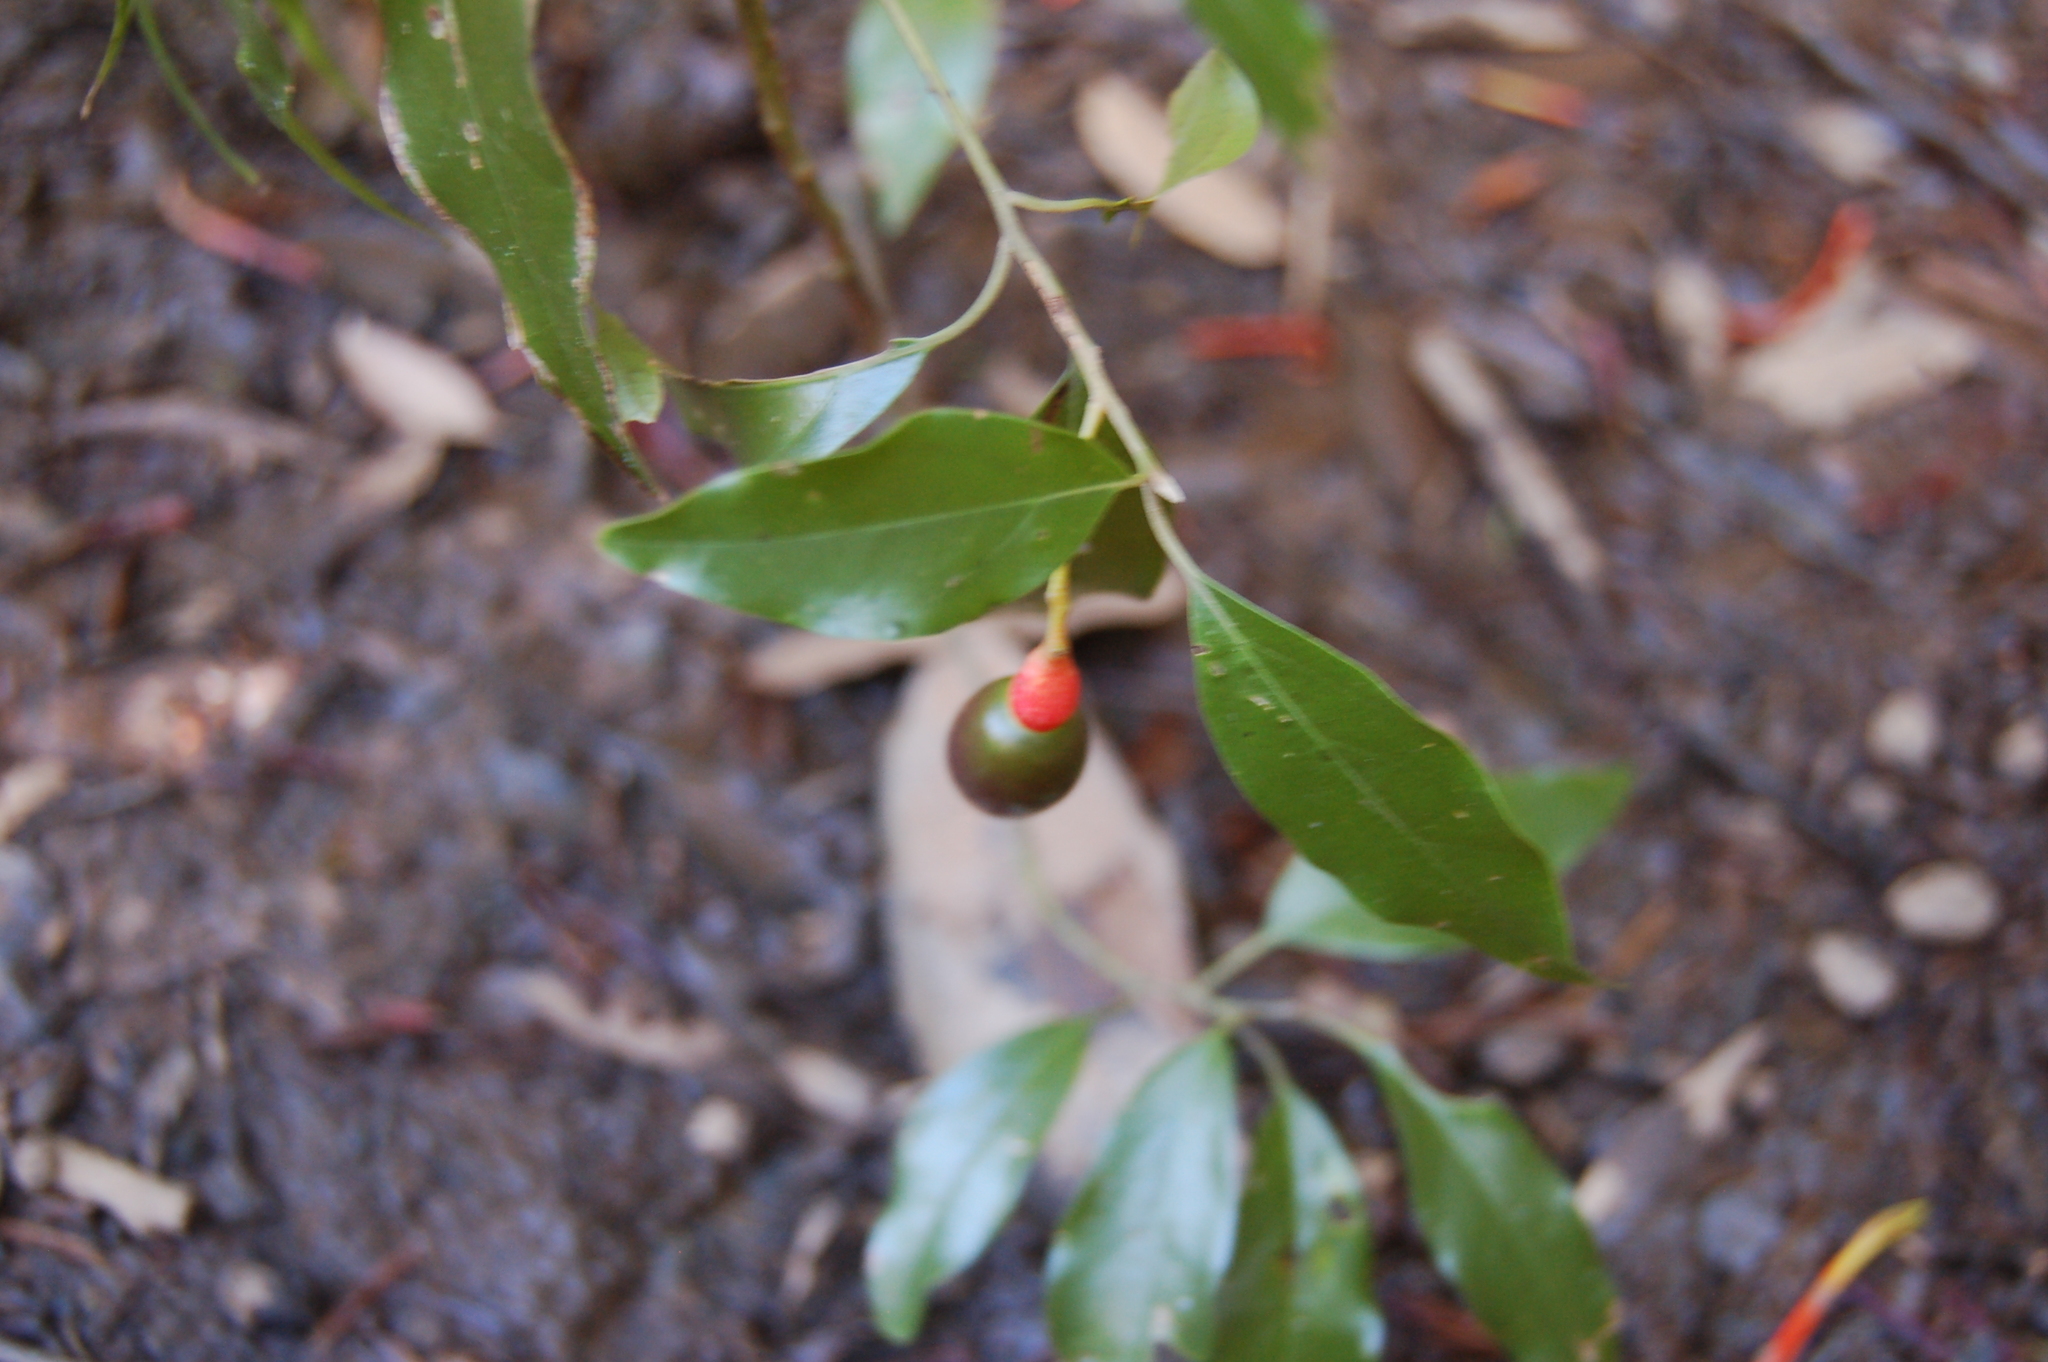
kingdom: Plantae
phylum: Tracheophyta
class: Magnoliopsida
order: Laurales
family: Lauraceae
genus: Damburneya
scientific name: Damburneya salicifolia
